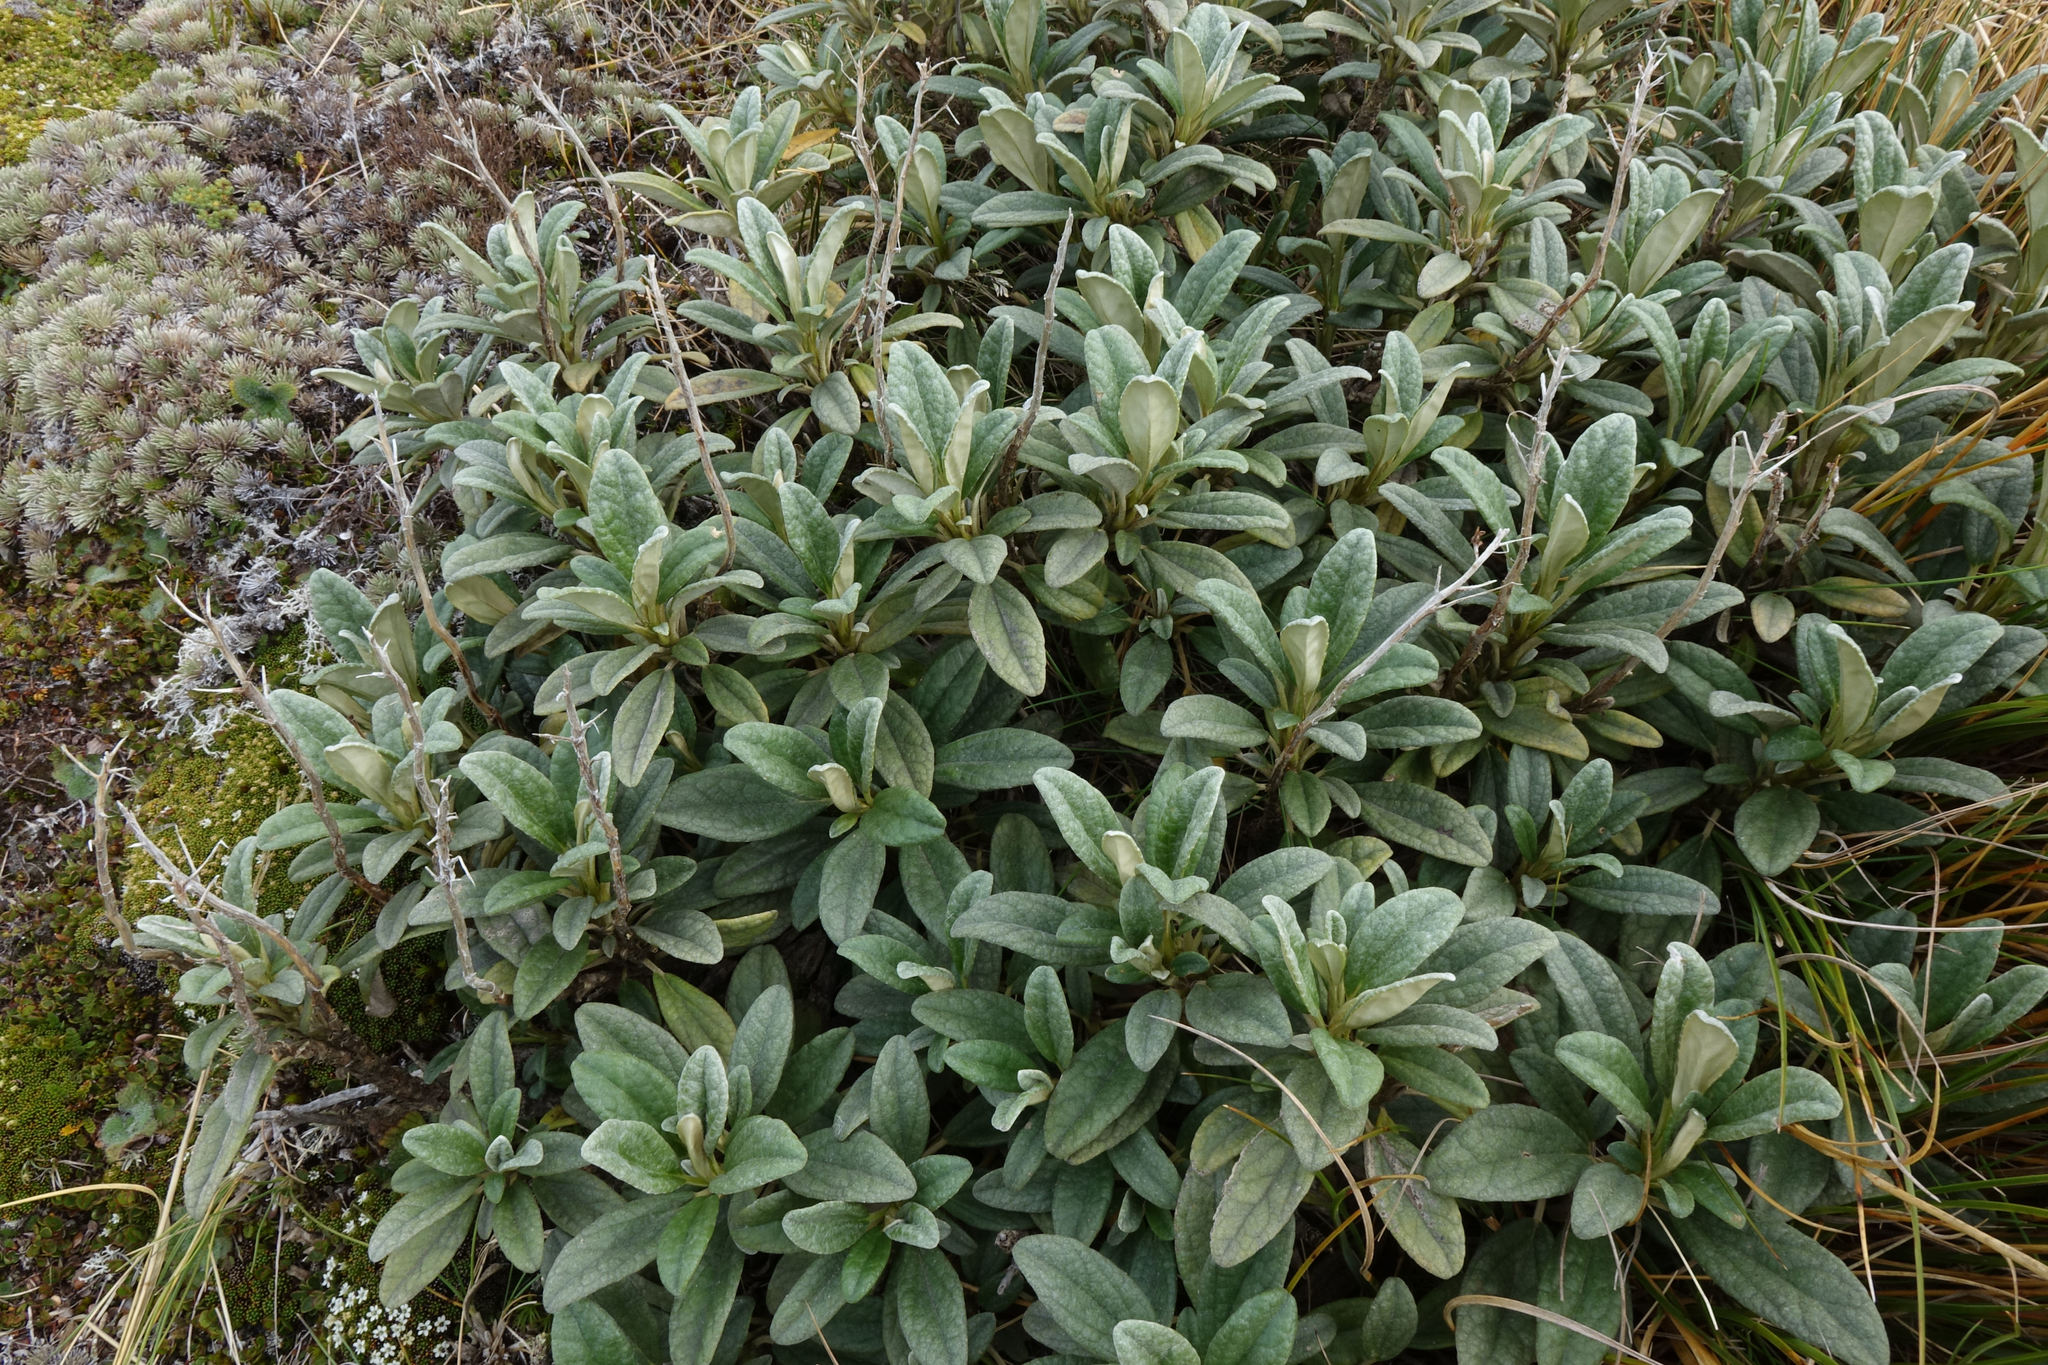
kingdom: Plantae
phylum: Tracheophyta
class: Magnoliopsida
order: Asterales
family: Asteraceae
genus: Brachyglottis
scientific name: Brachyglottis revoluta
